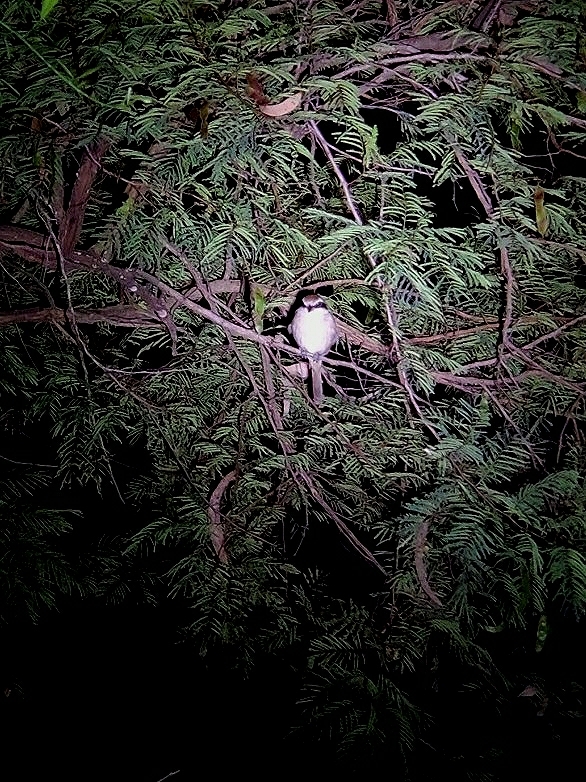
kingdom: Animalia
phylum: Chordata
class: Aves
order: Passeriformes
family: Laniidae
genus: Lanius
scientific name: Lanius cristatus
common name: Brown shrike
